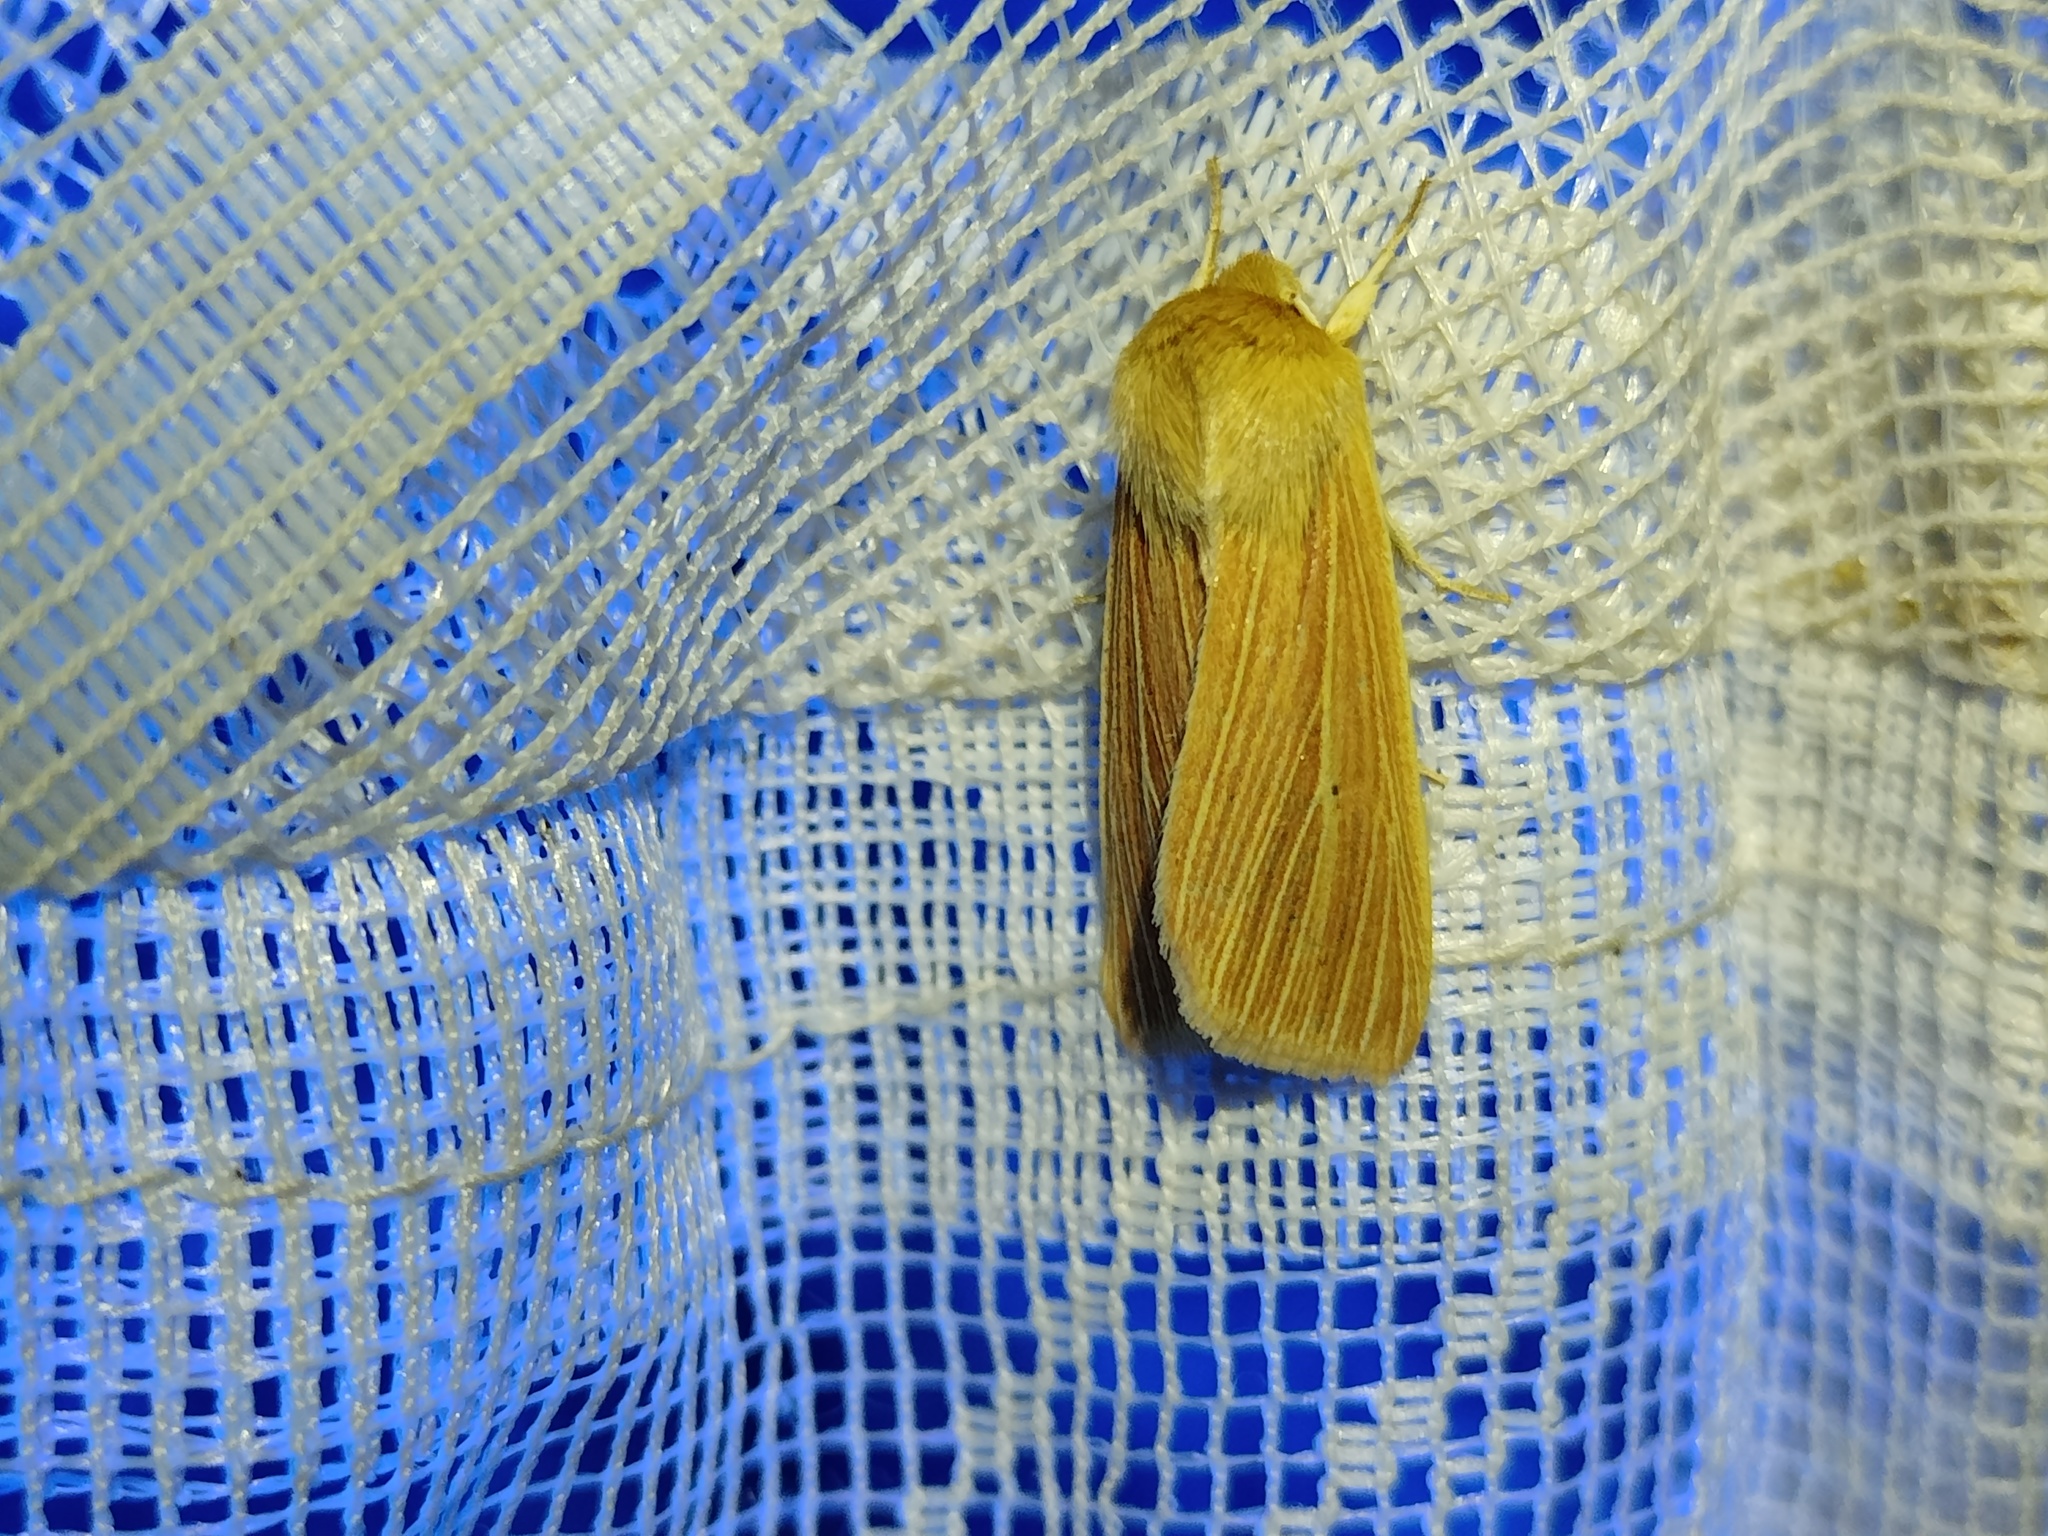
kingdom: Animalia
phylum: Arthropoda
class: Insecta
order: Lepidoptera
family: Noctuidae
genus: Mythimna
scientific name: Mythimna pallens
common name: Common wainscot
